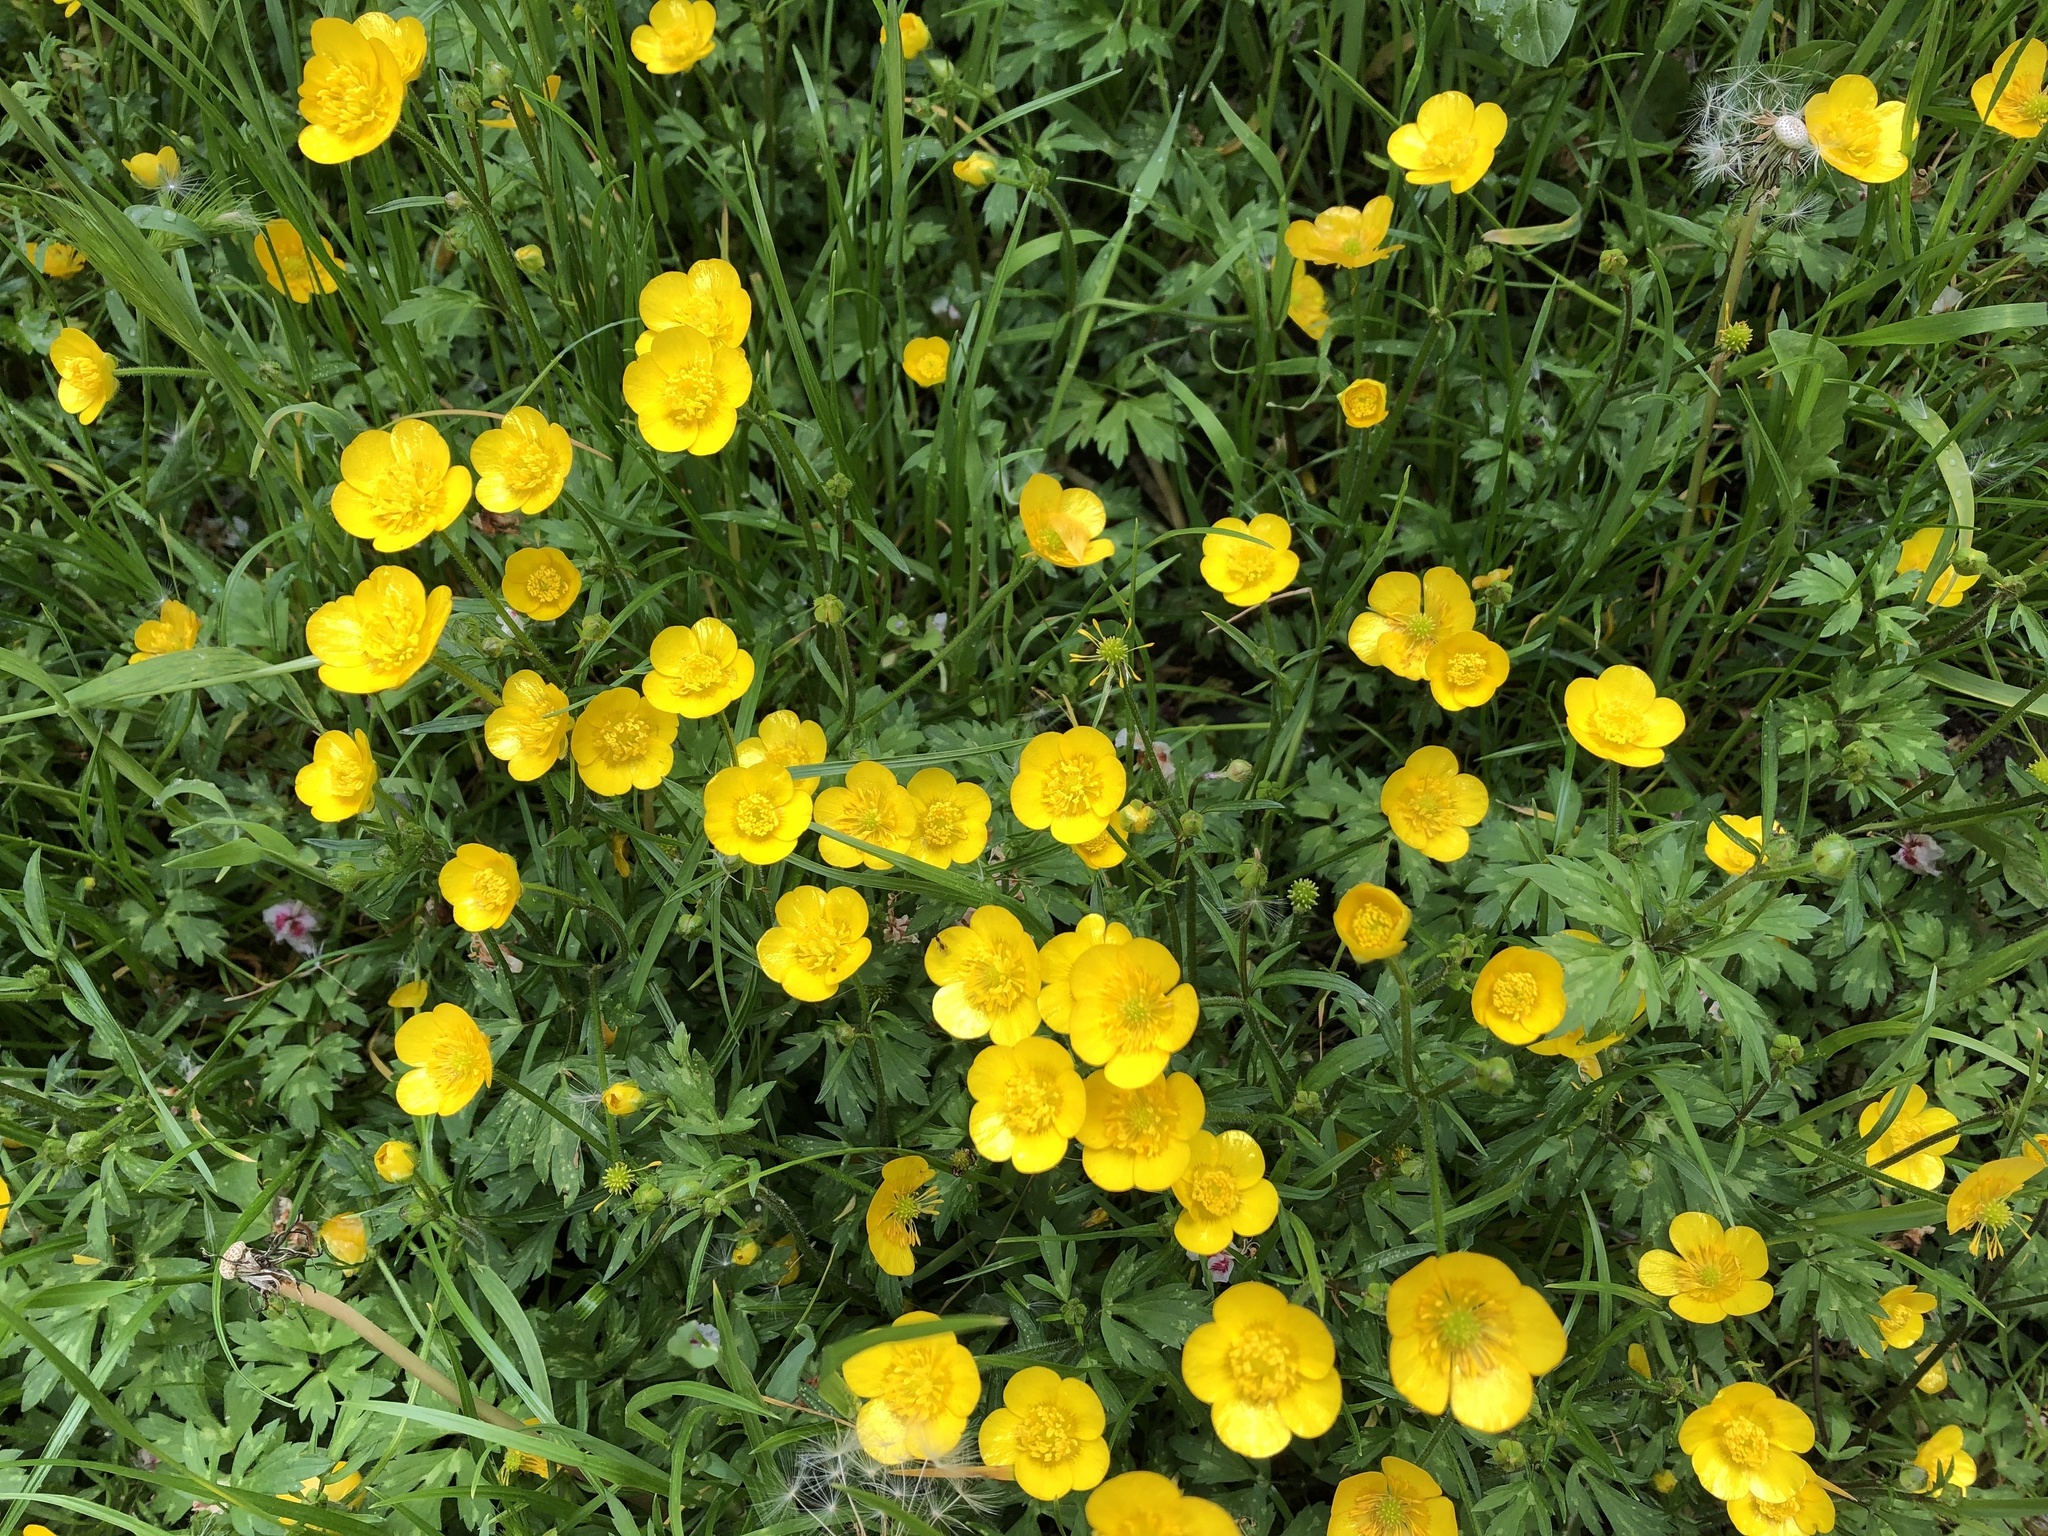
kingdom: Plantae
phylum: Tracheophyta
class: Magnoliopsida
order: Ranunculales
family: Ranunculaceae
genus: Ranunculus
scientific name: Ranunculus repens
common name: Creeping buttercup
